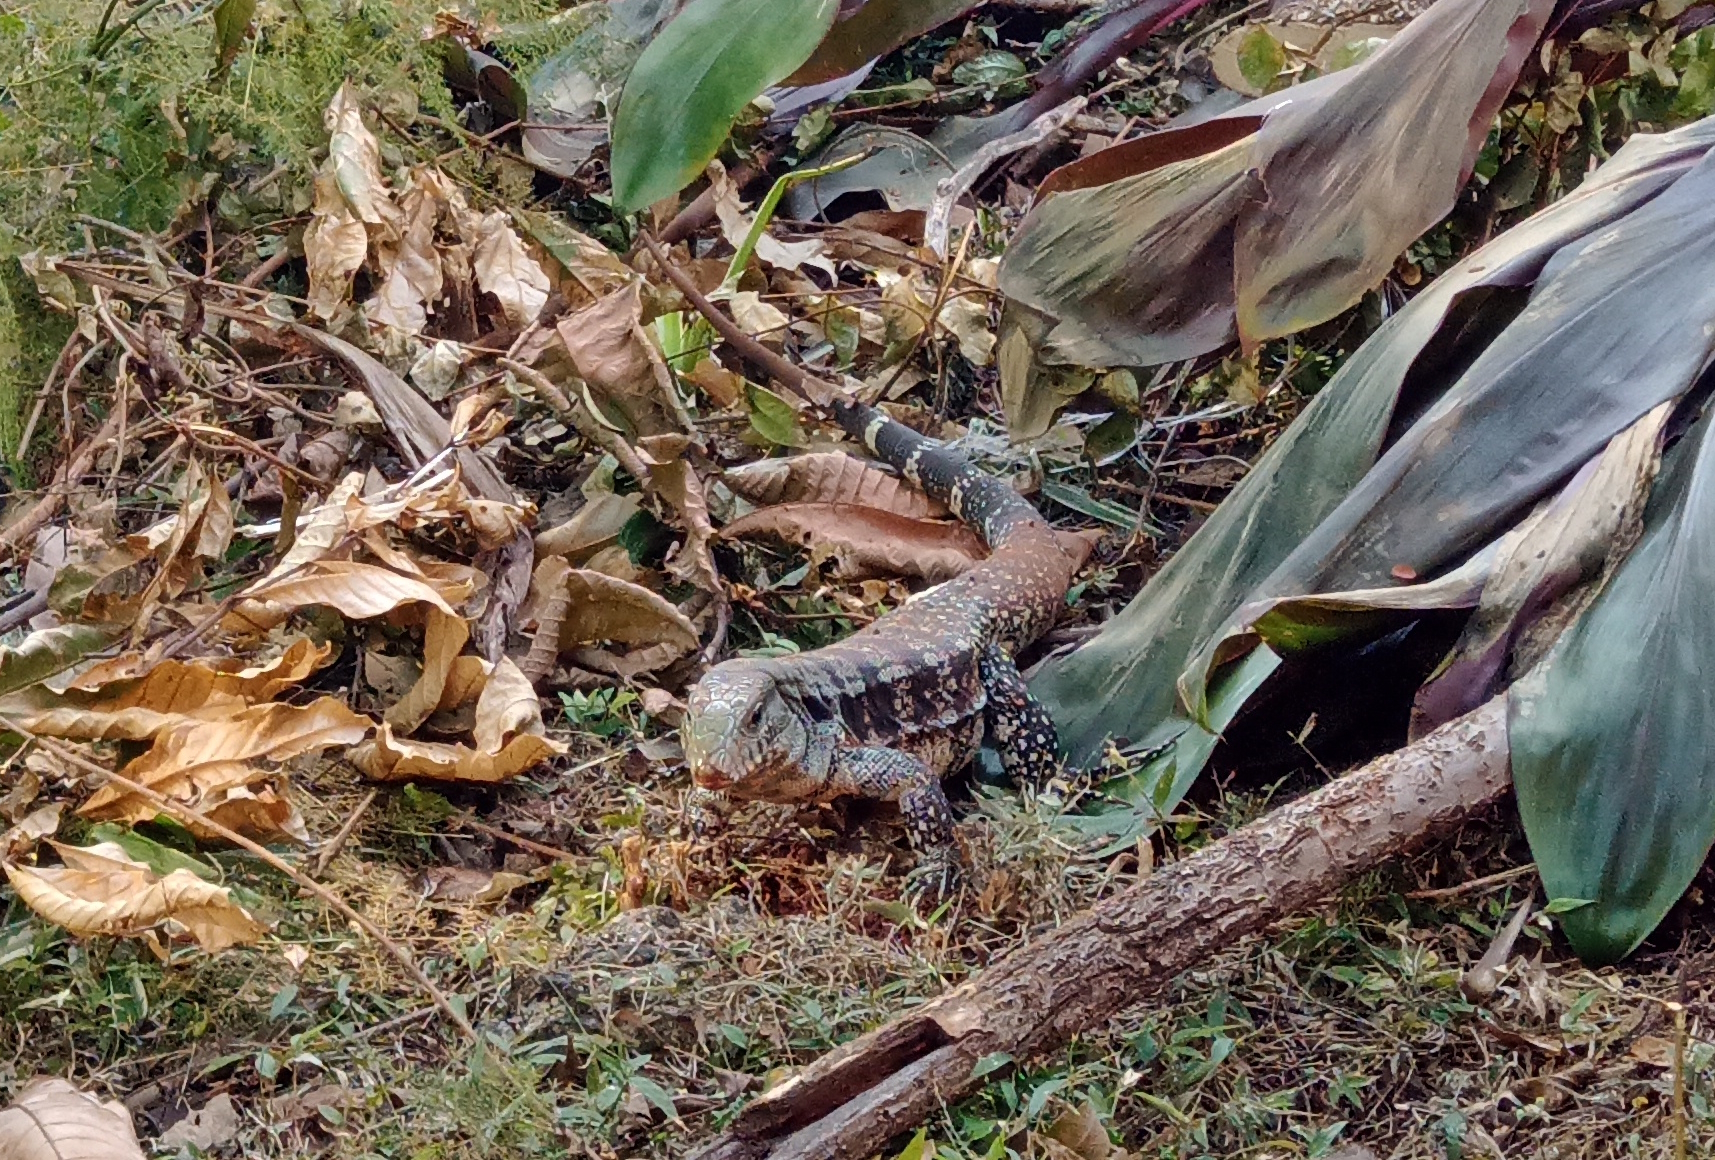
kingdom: Animalia
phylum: Chordata
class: Squamata
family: Teiidae
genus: Salvator
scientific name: Salvator merianae
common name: Argentine black and white tegu
